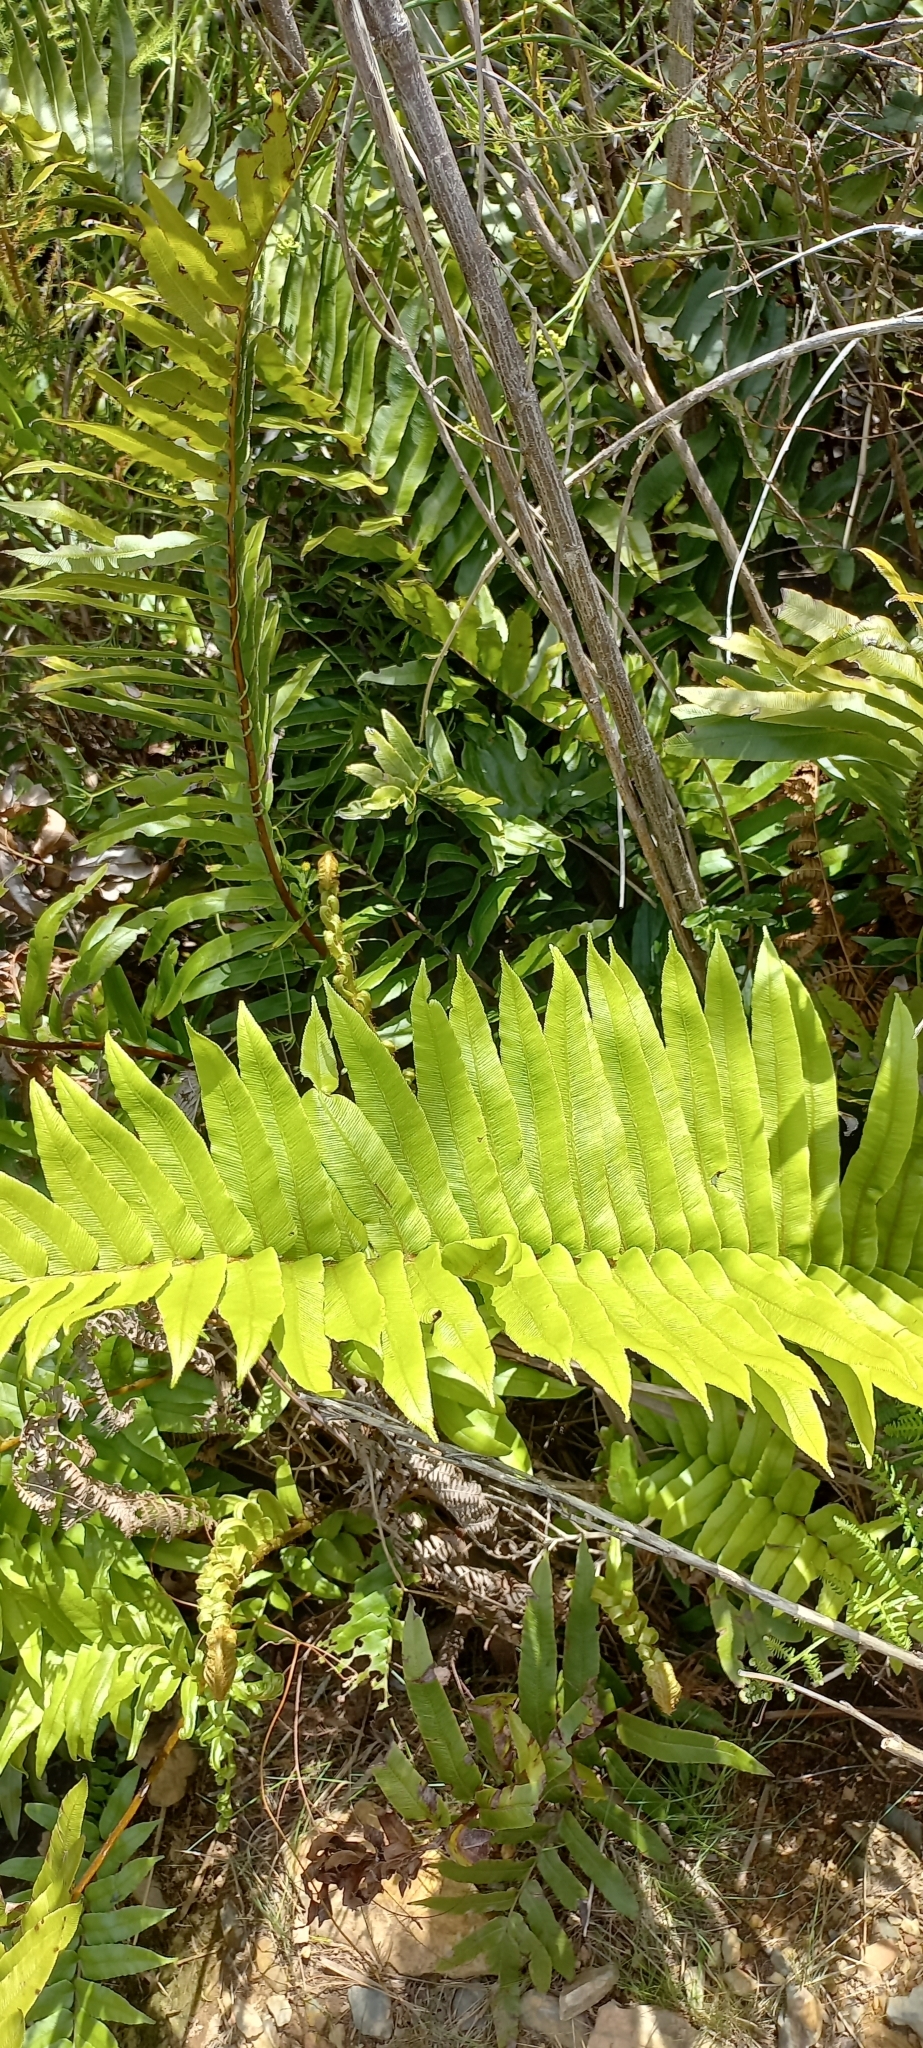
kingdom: Plantae
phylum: Tracheophyta
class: Polypodiopsida
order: Polypodiales
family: Blechnaceae
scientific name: Blechnaceae
